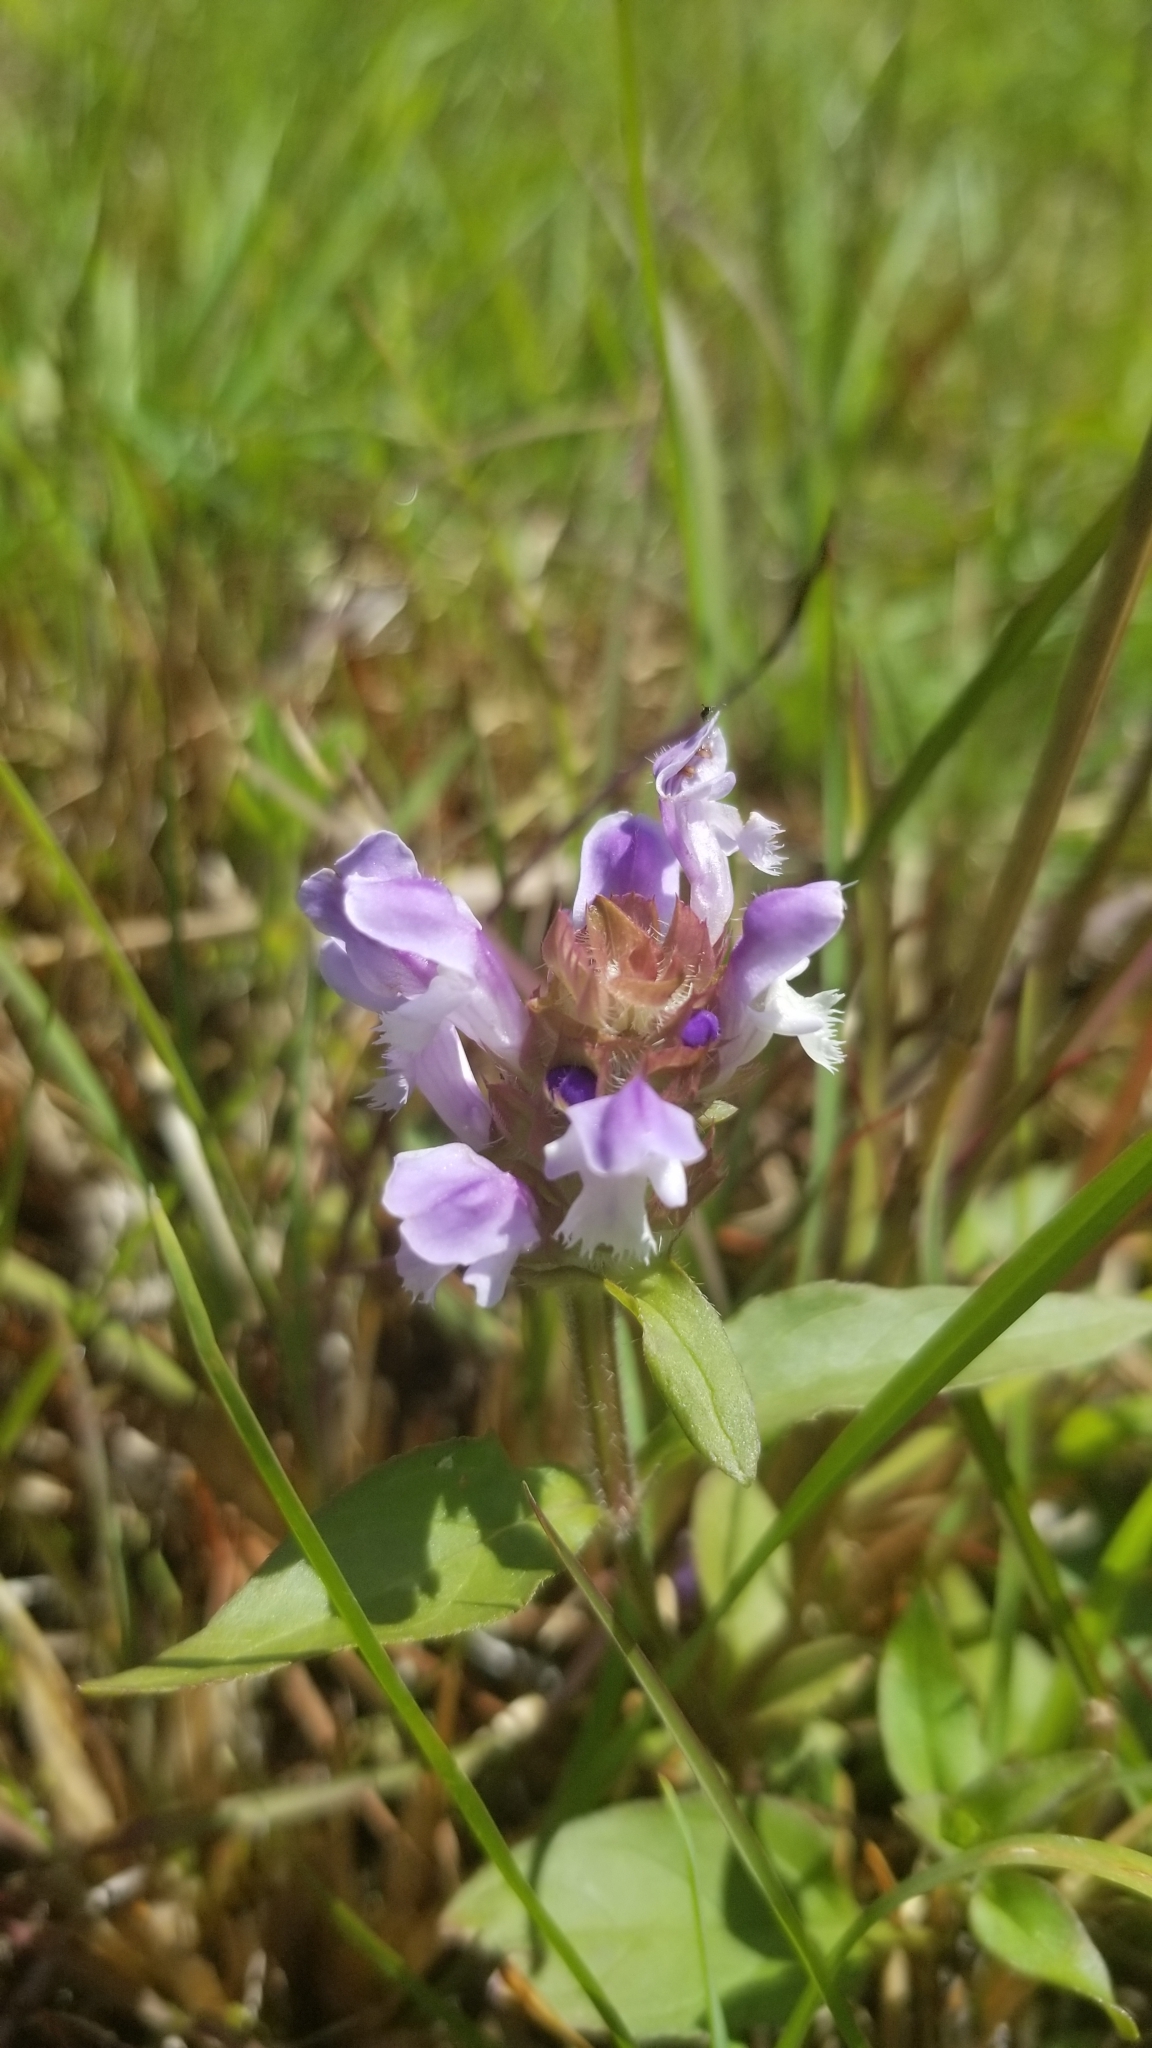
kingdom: Plantae
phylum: Tracheophyta
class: Magnoliopsida
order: Lamiales
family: Lamiaceae
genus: Prunella
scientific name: Prunella vulgaris
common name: Heal-all
